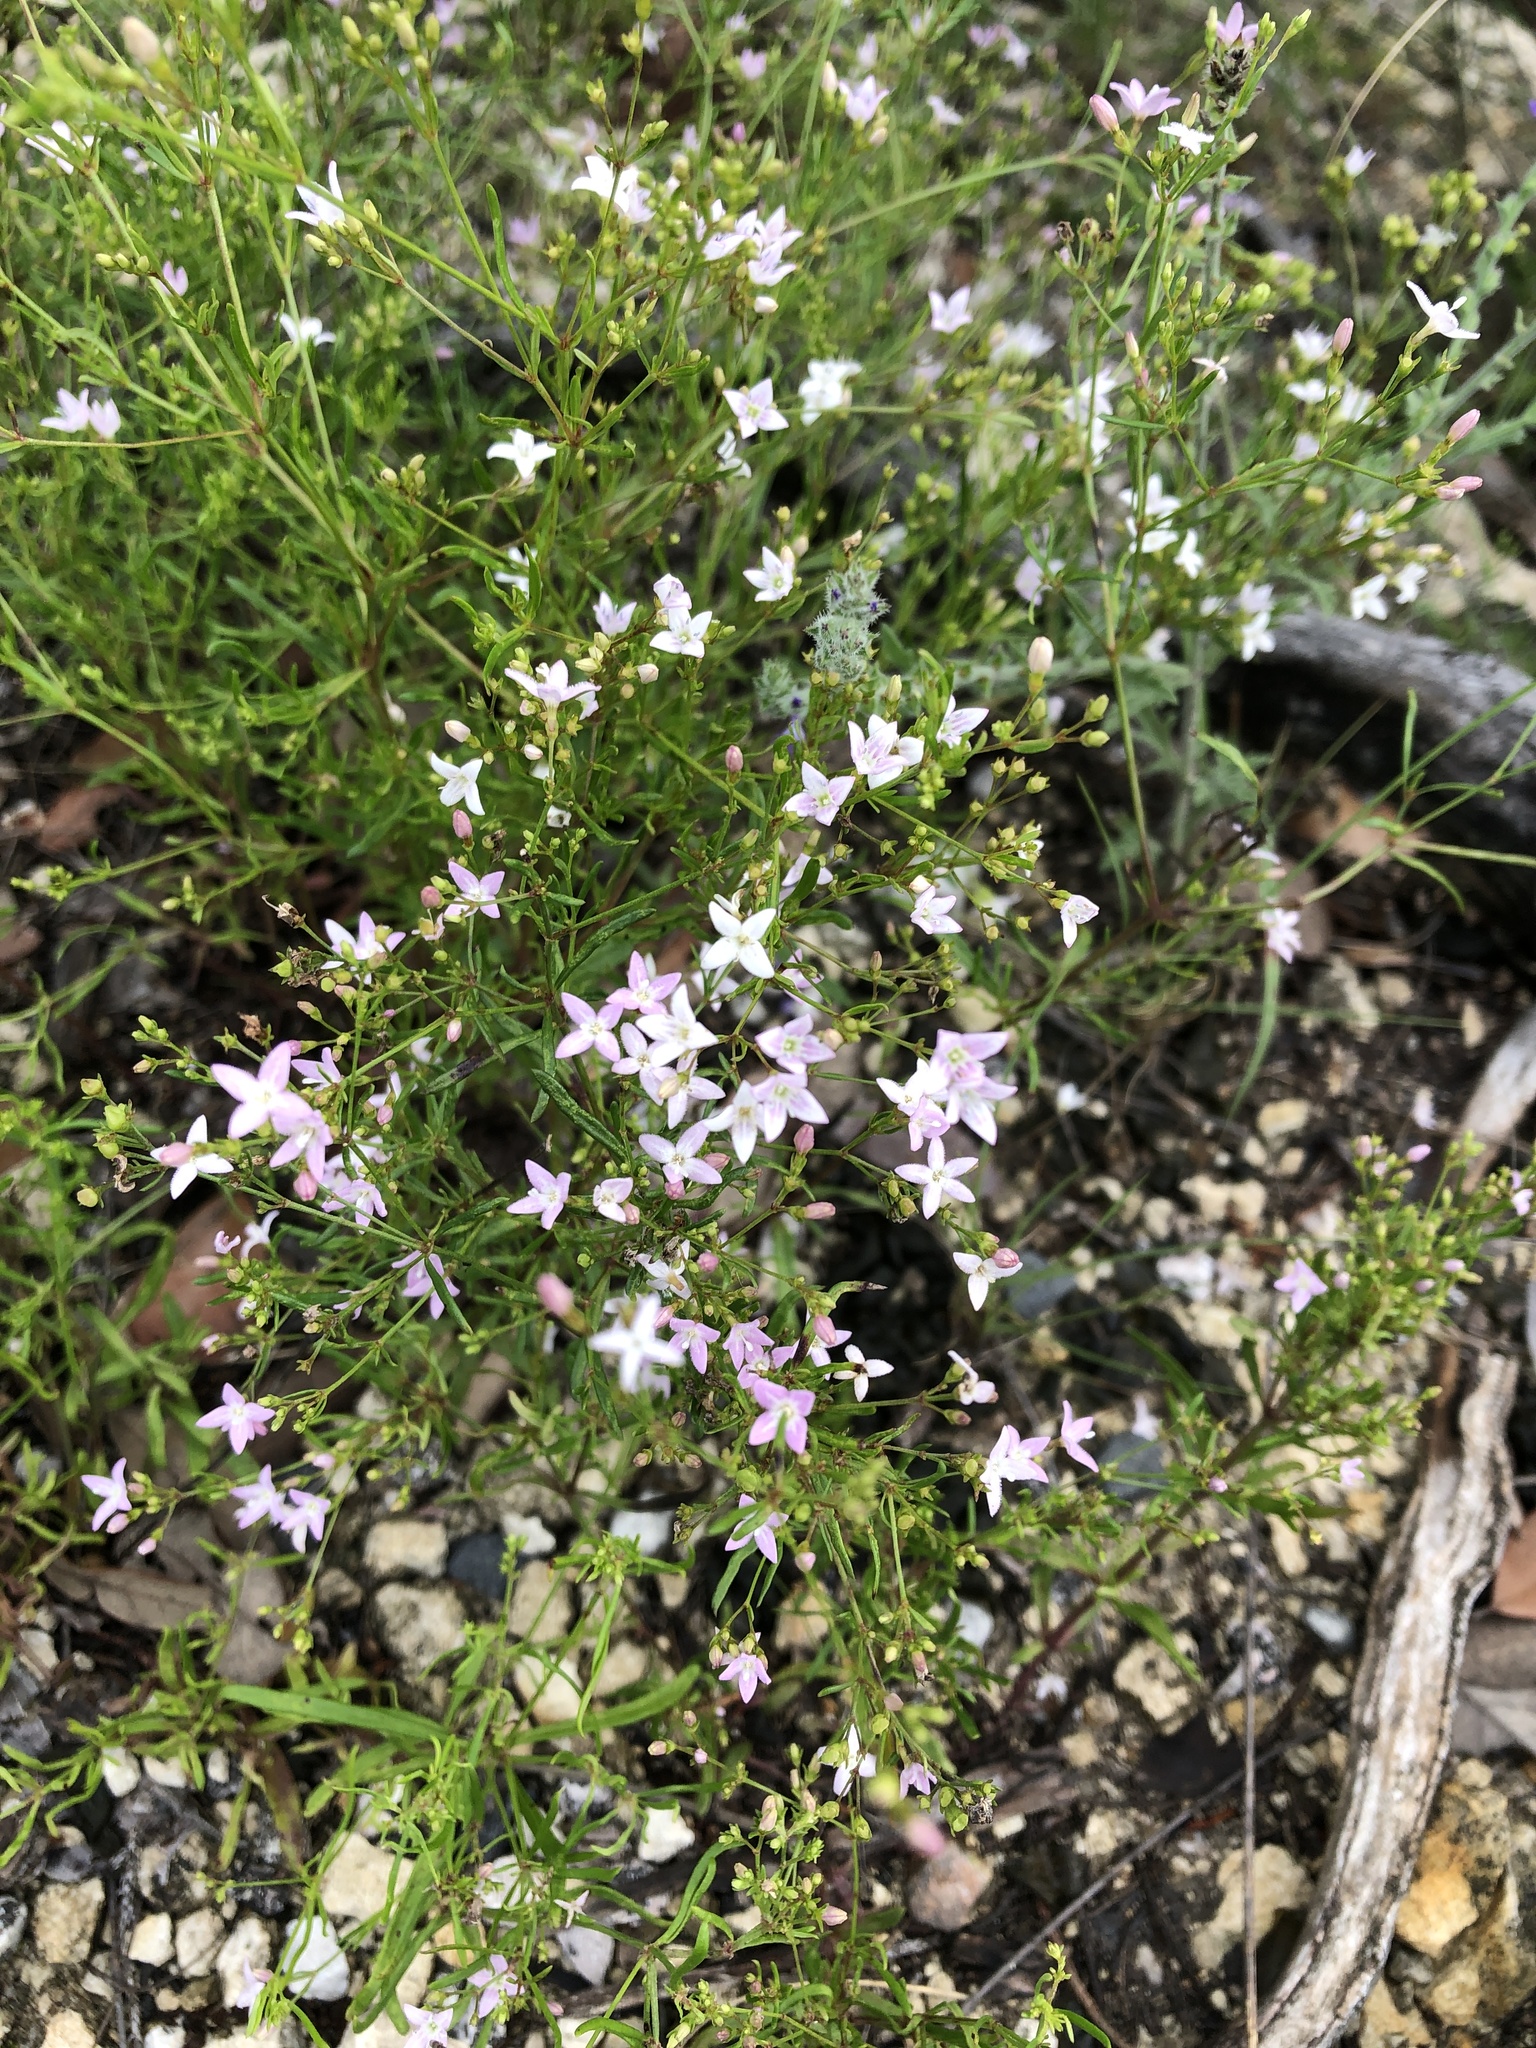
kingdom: Plantae
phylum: Tracheophyta
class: Magnoliopsida
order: Gentianales
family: Rubiaceae
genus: Stenaria
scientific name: Stenaria nigricans
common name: Diamondflowers
